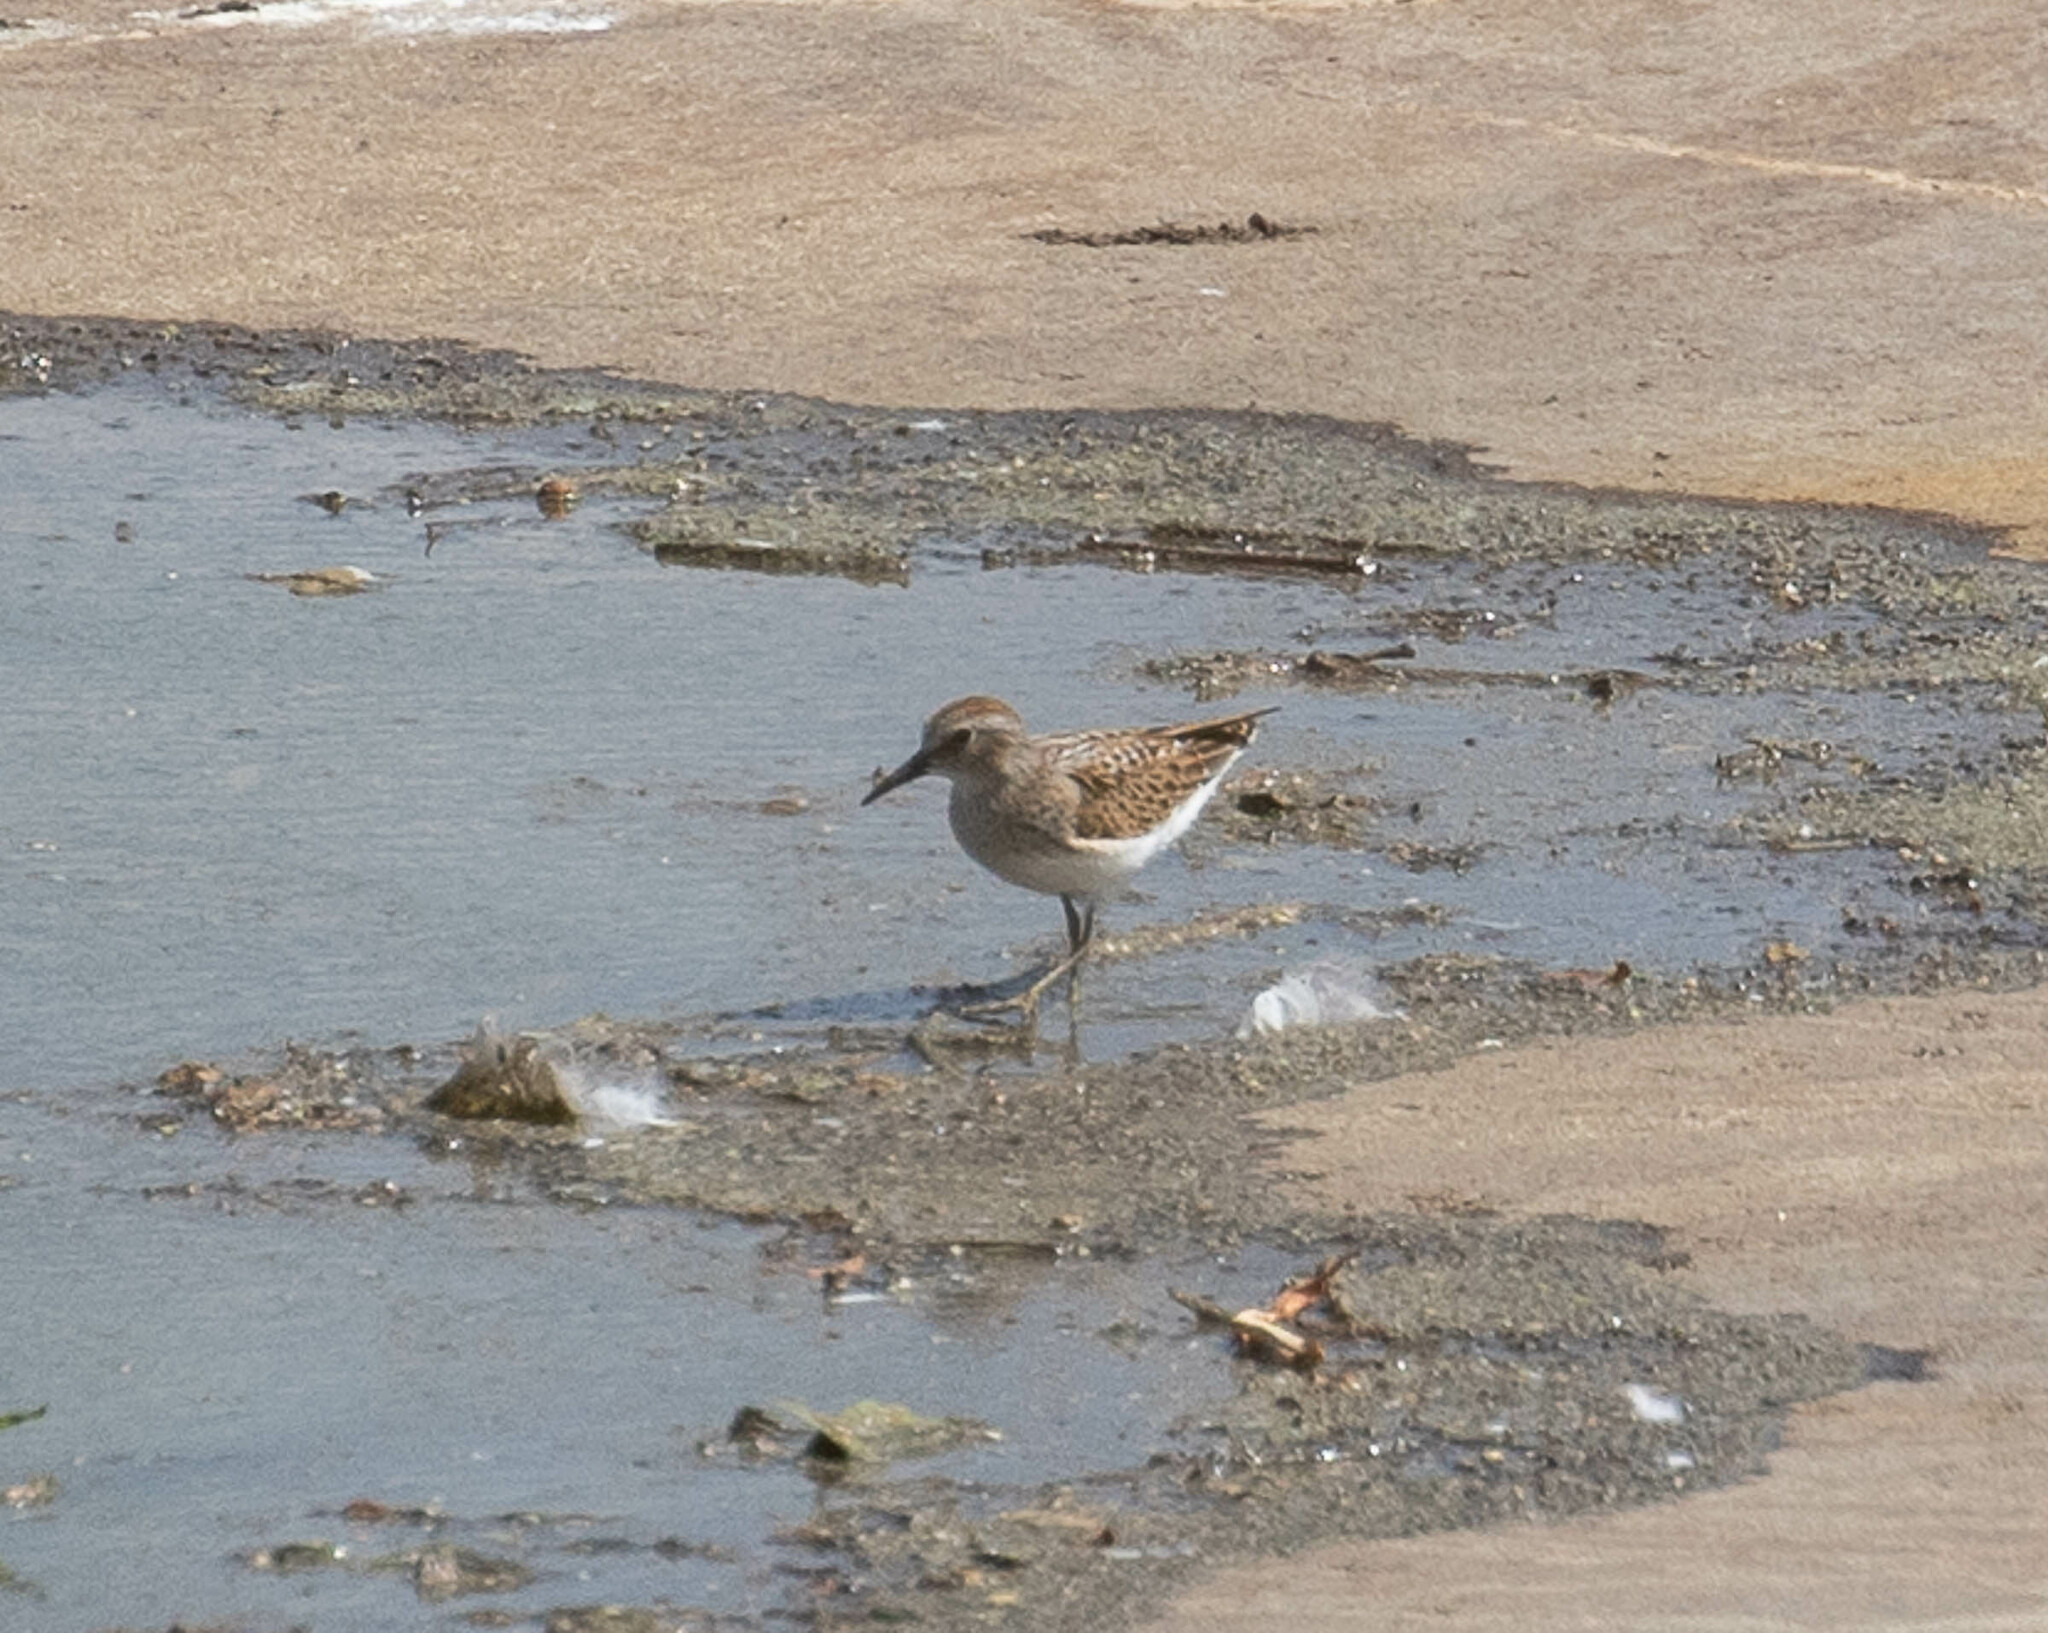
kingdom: Animalia
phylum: Chordata
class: Aves
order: Charadriiformes
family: Scolopacidae
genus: Calidris
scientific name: Calidris minutilla
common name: Least sandpiper
